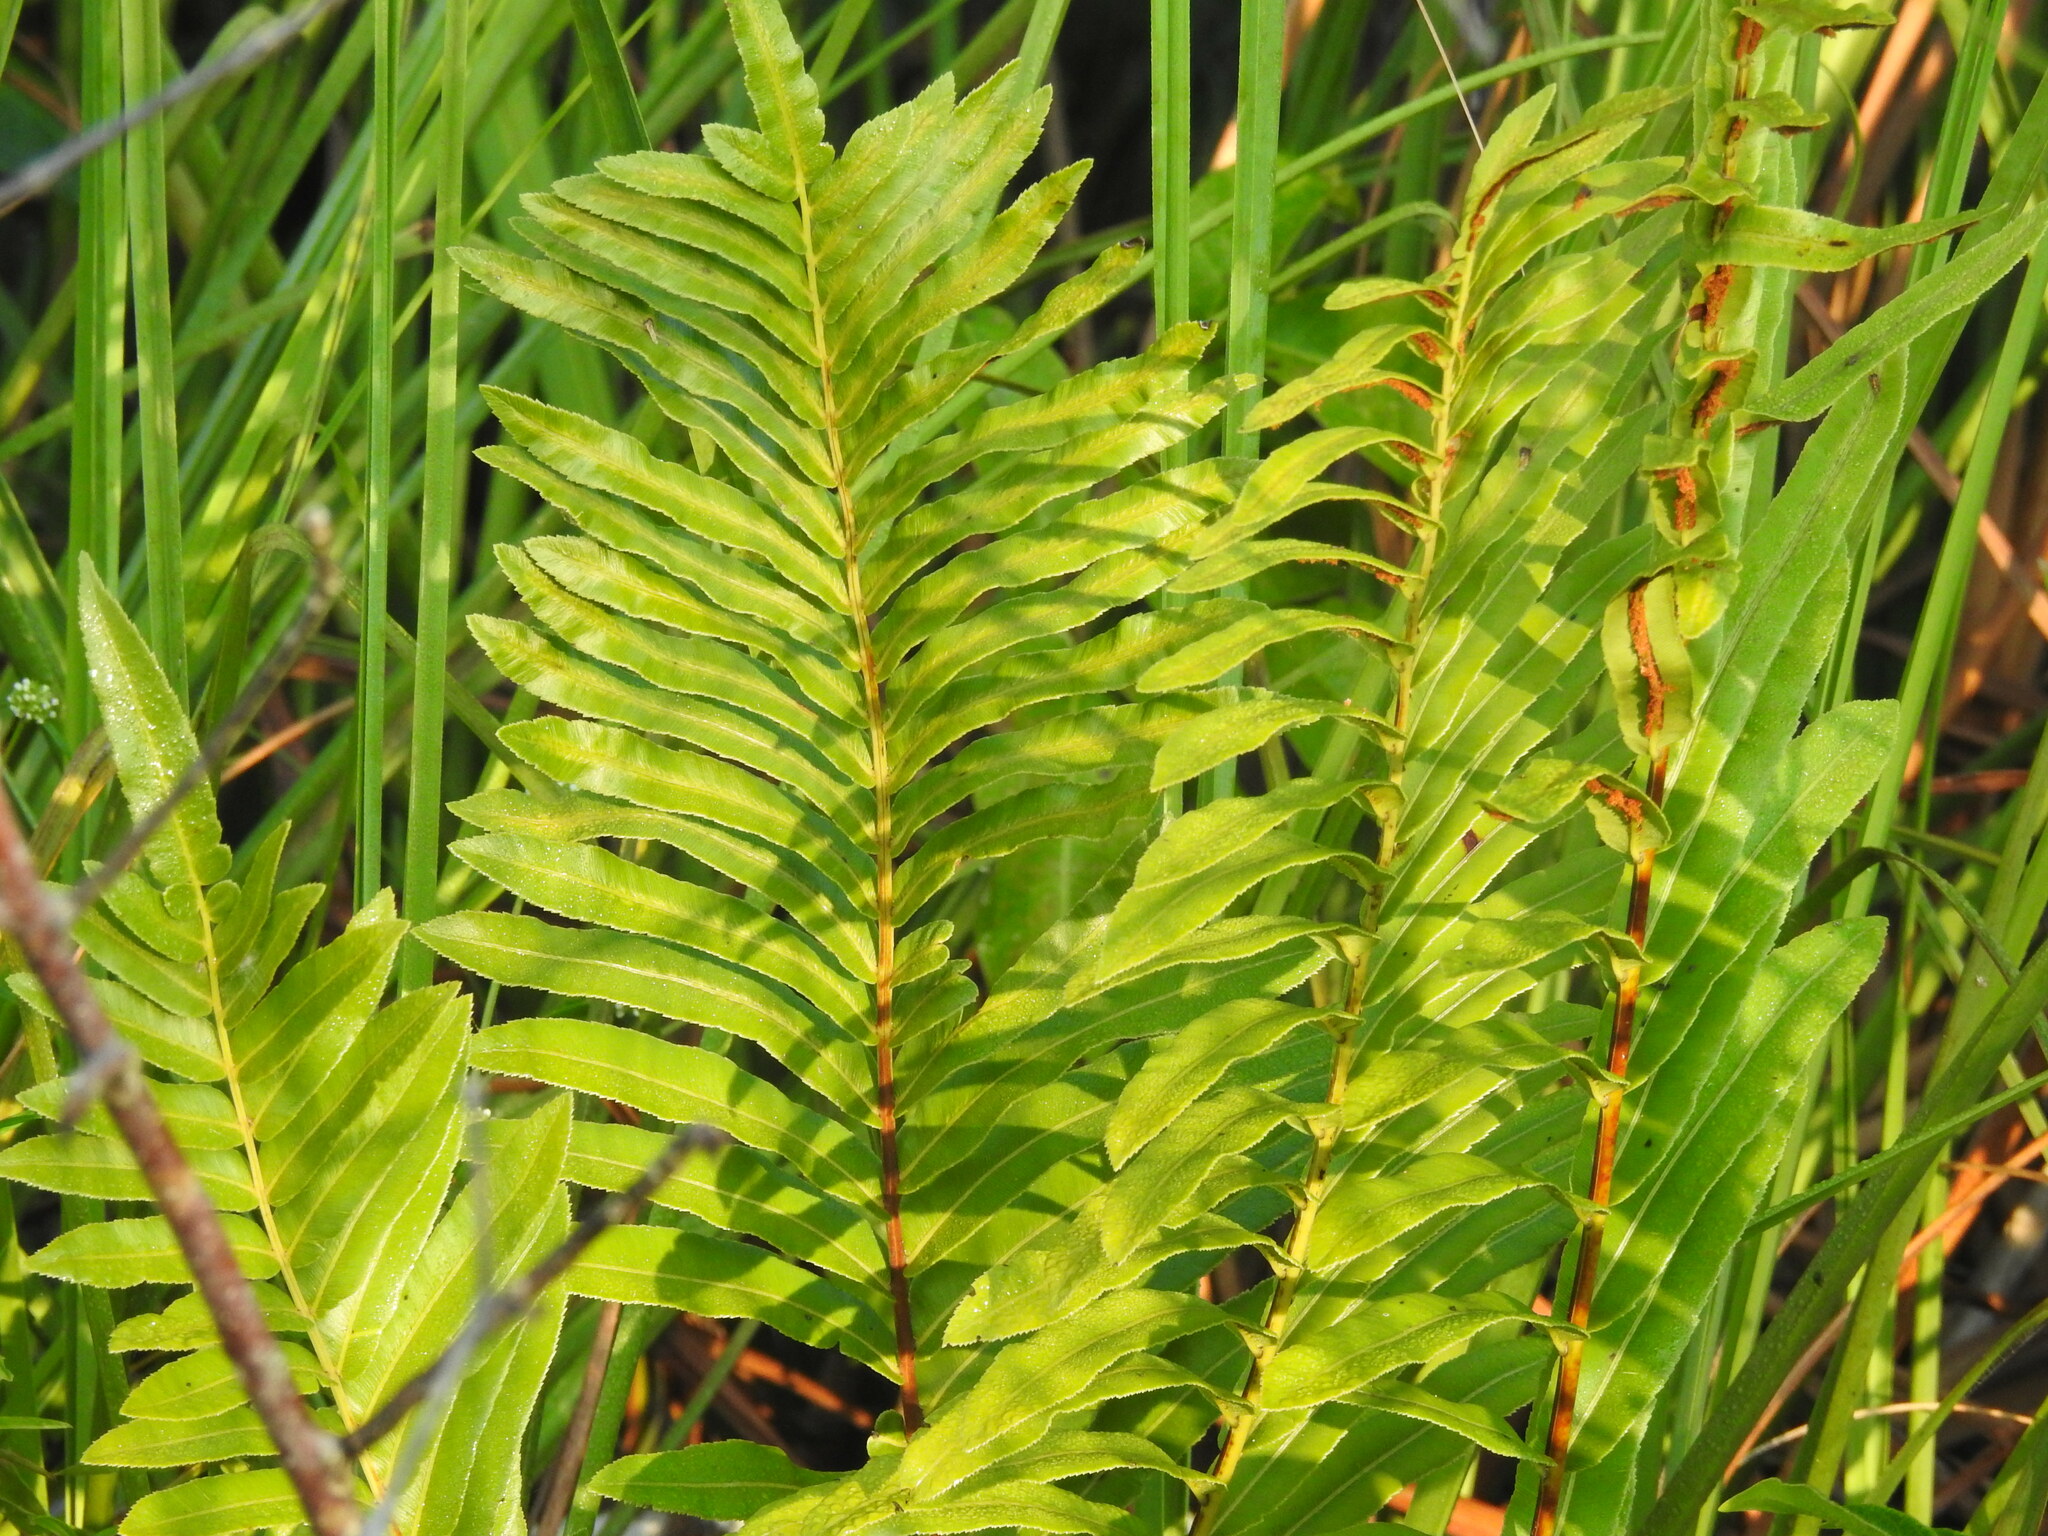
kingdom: Plantae
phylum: Tracheophyta
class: Polypodiopsida
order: Polypodiales
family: Blechnaceae
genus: Telmatoblechnum
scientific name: Telmatoblechnum serrulatum
